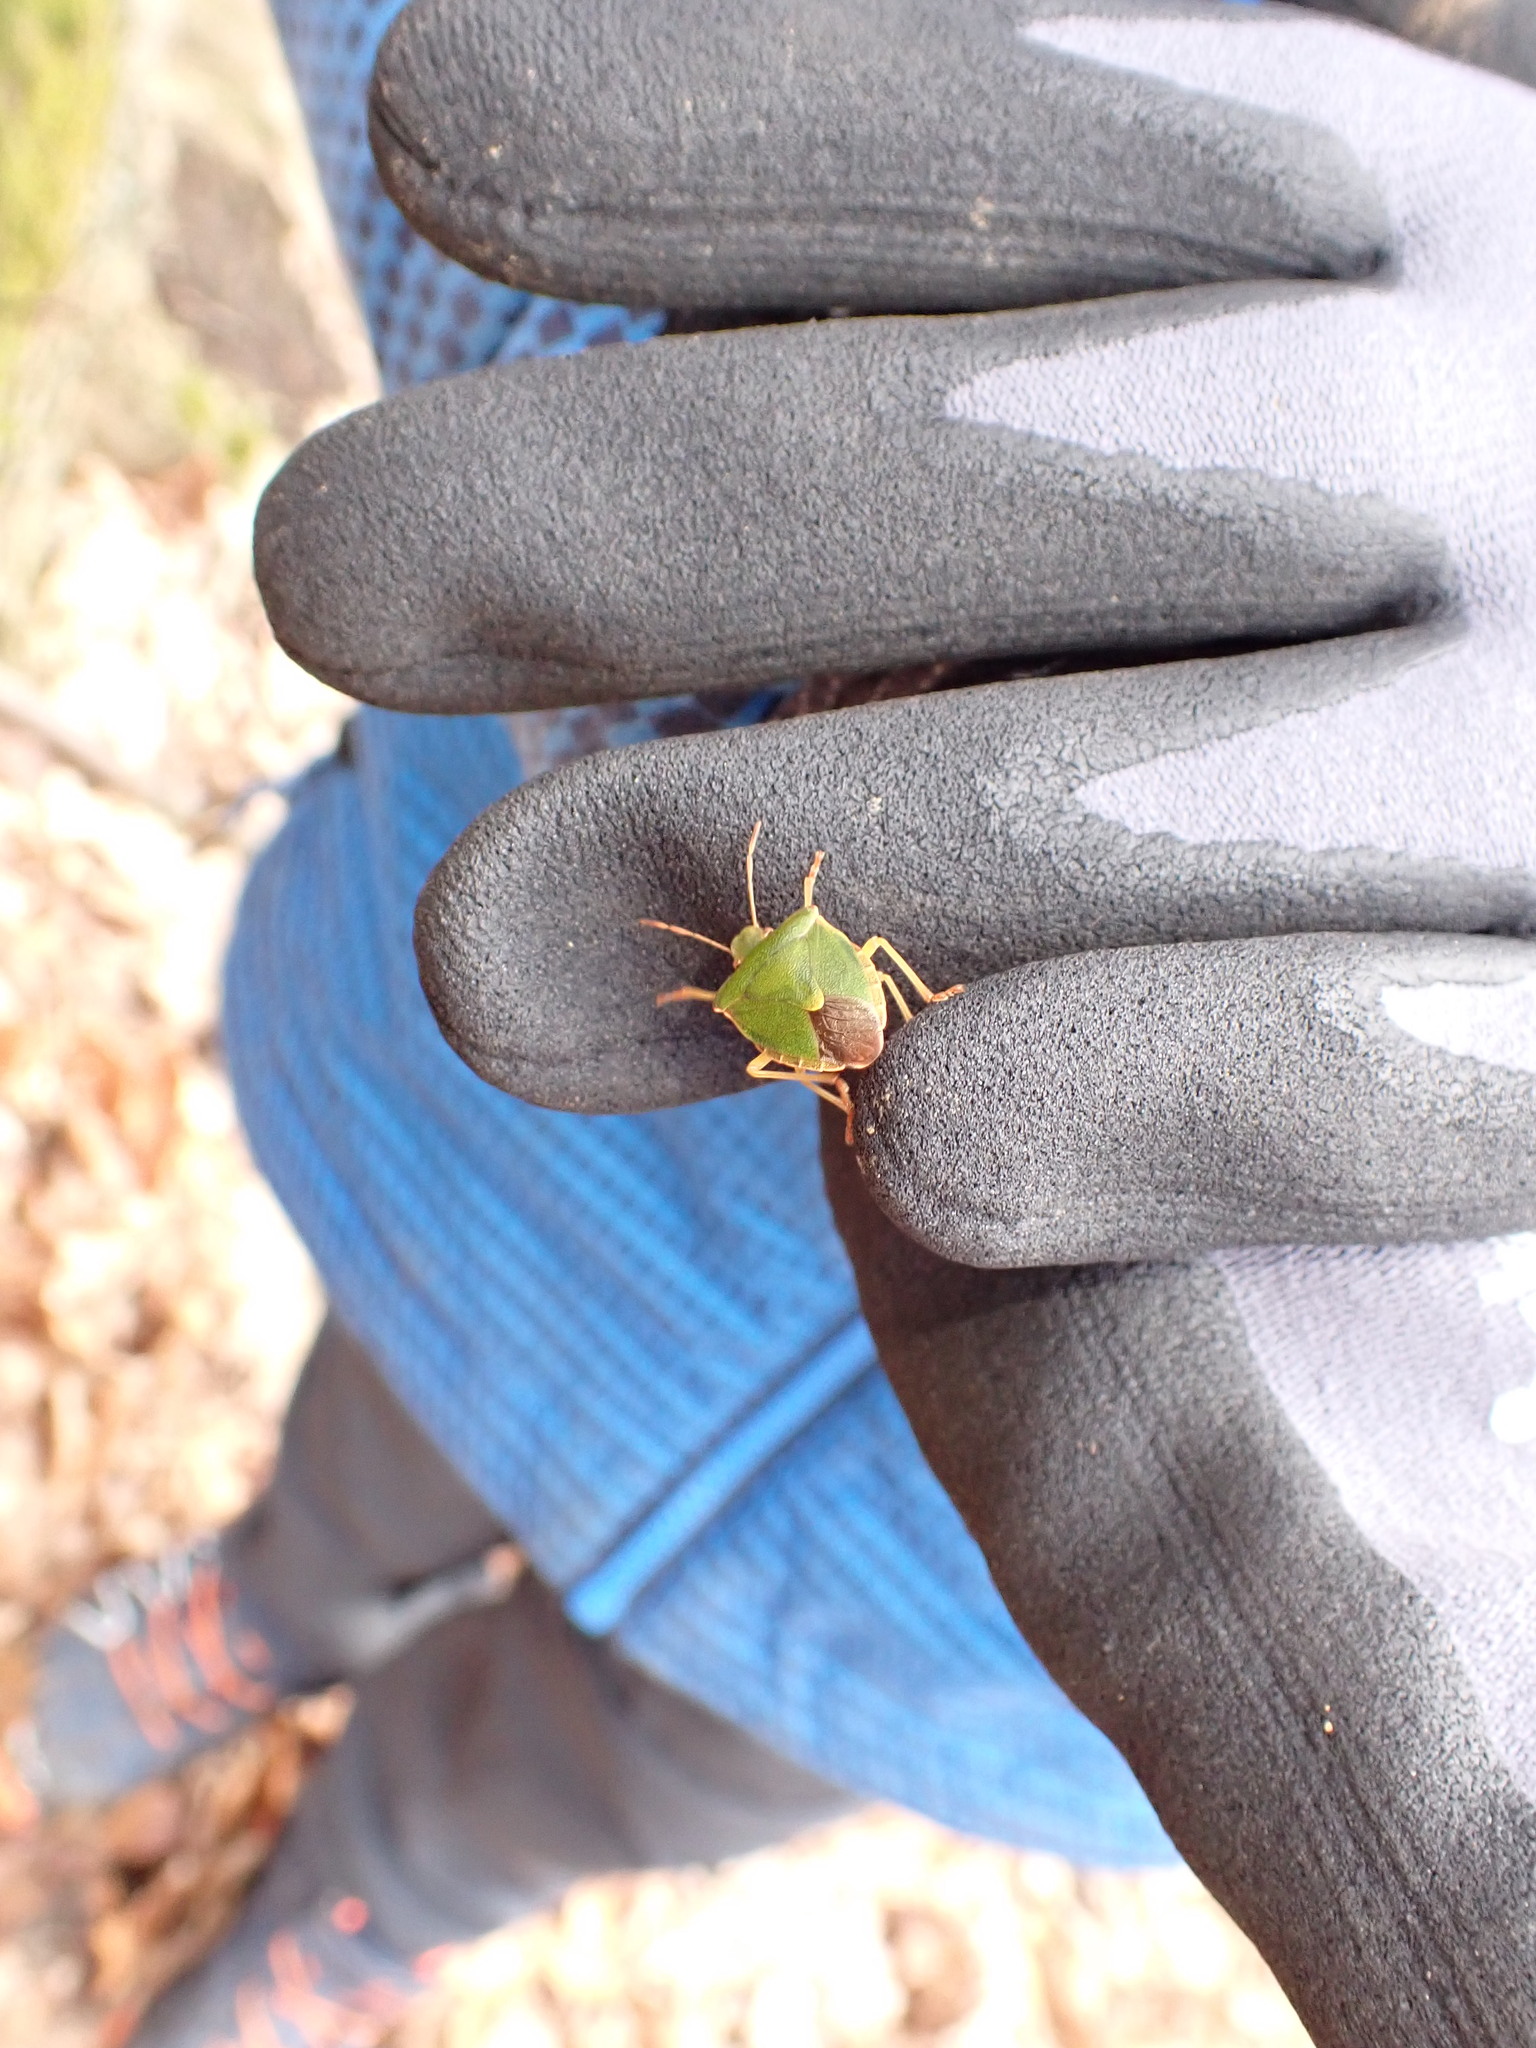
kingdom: Animalia
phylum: Arthropoda
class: Insecta
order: Hemiptera
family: Pentatomidae
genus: Palomena
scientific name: Palomena prasina
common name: Green shieldbug
